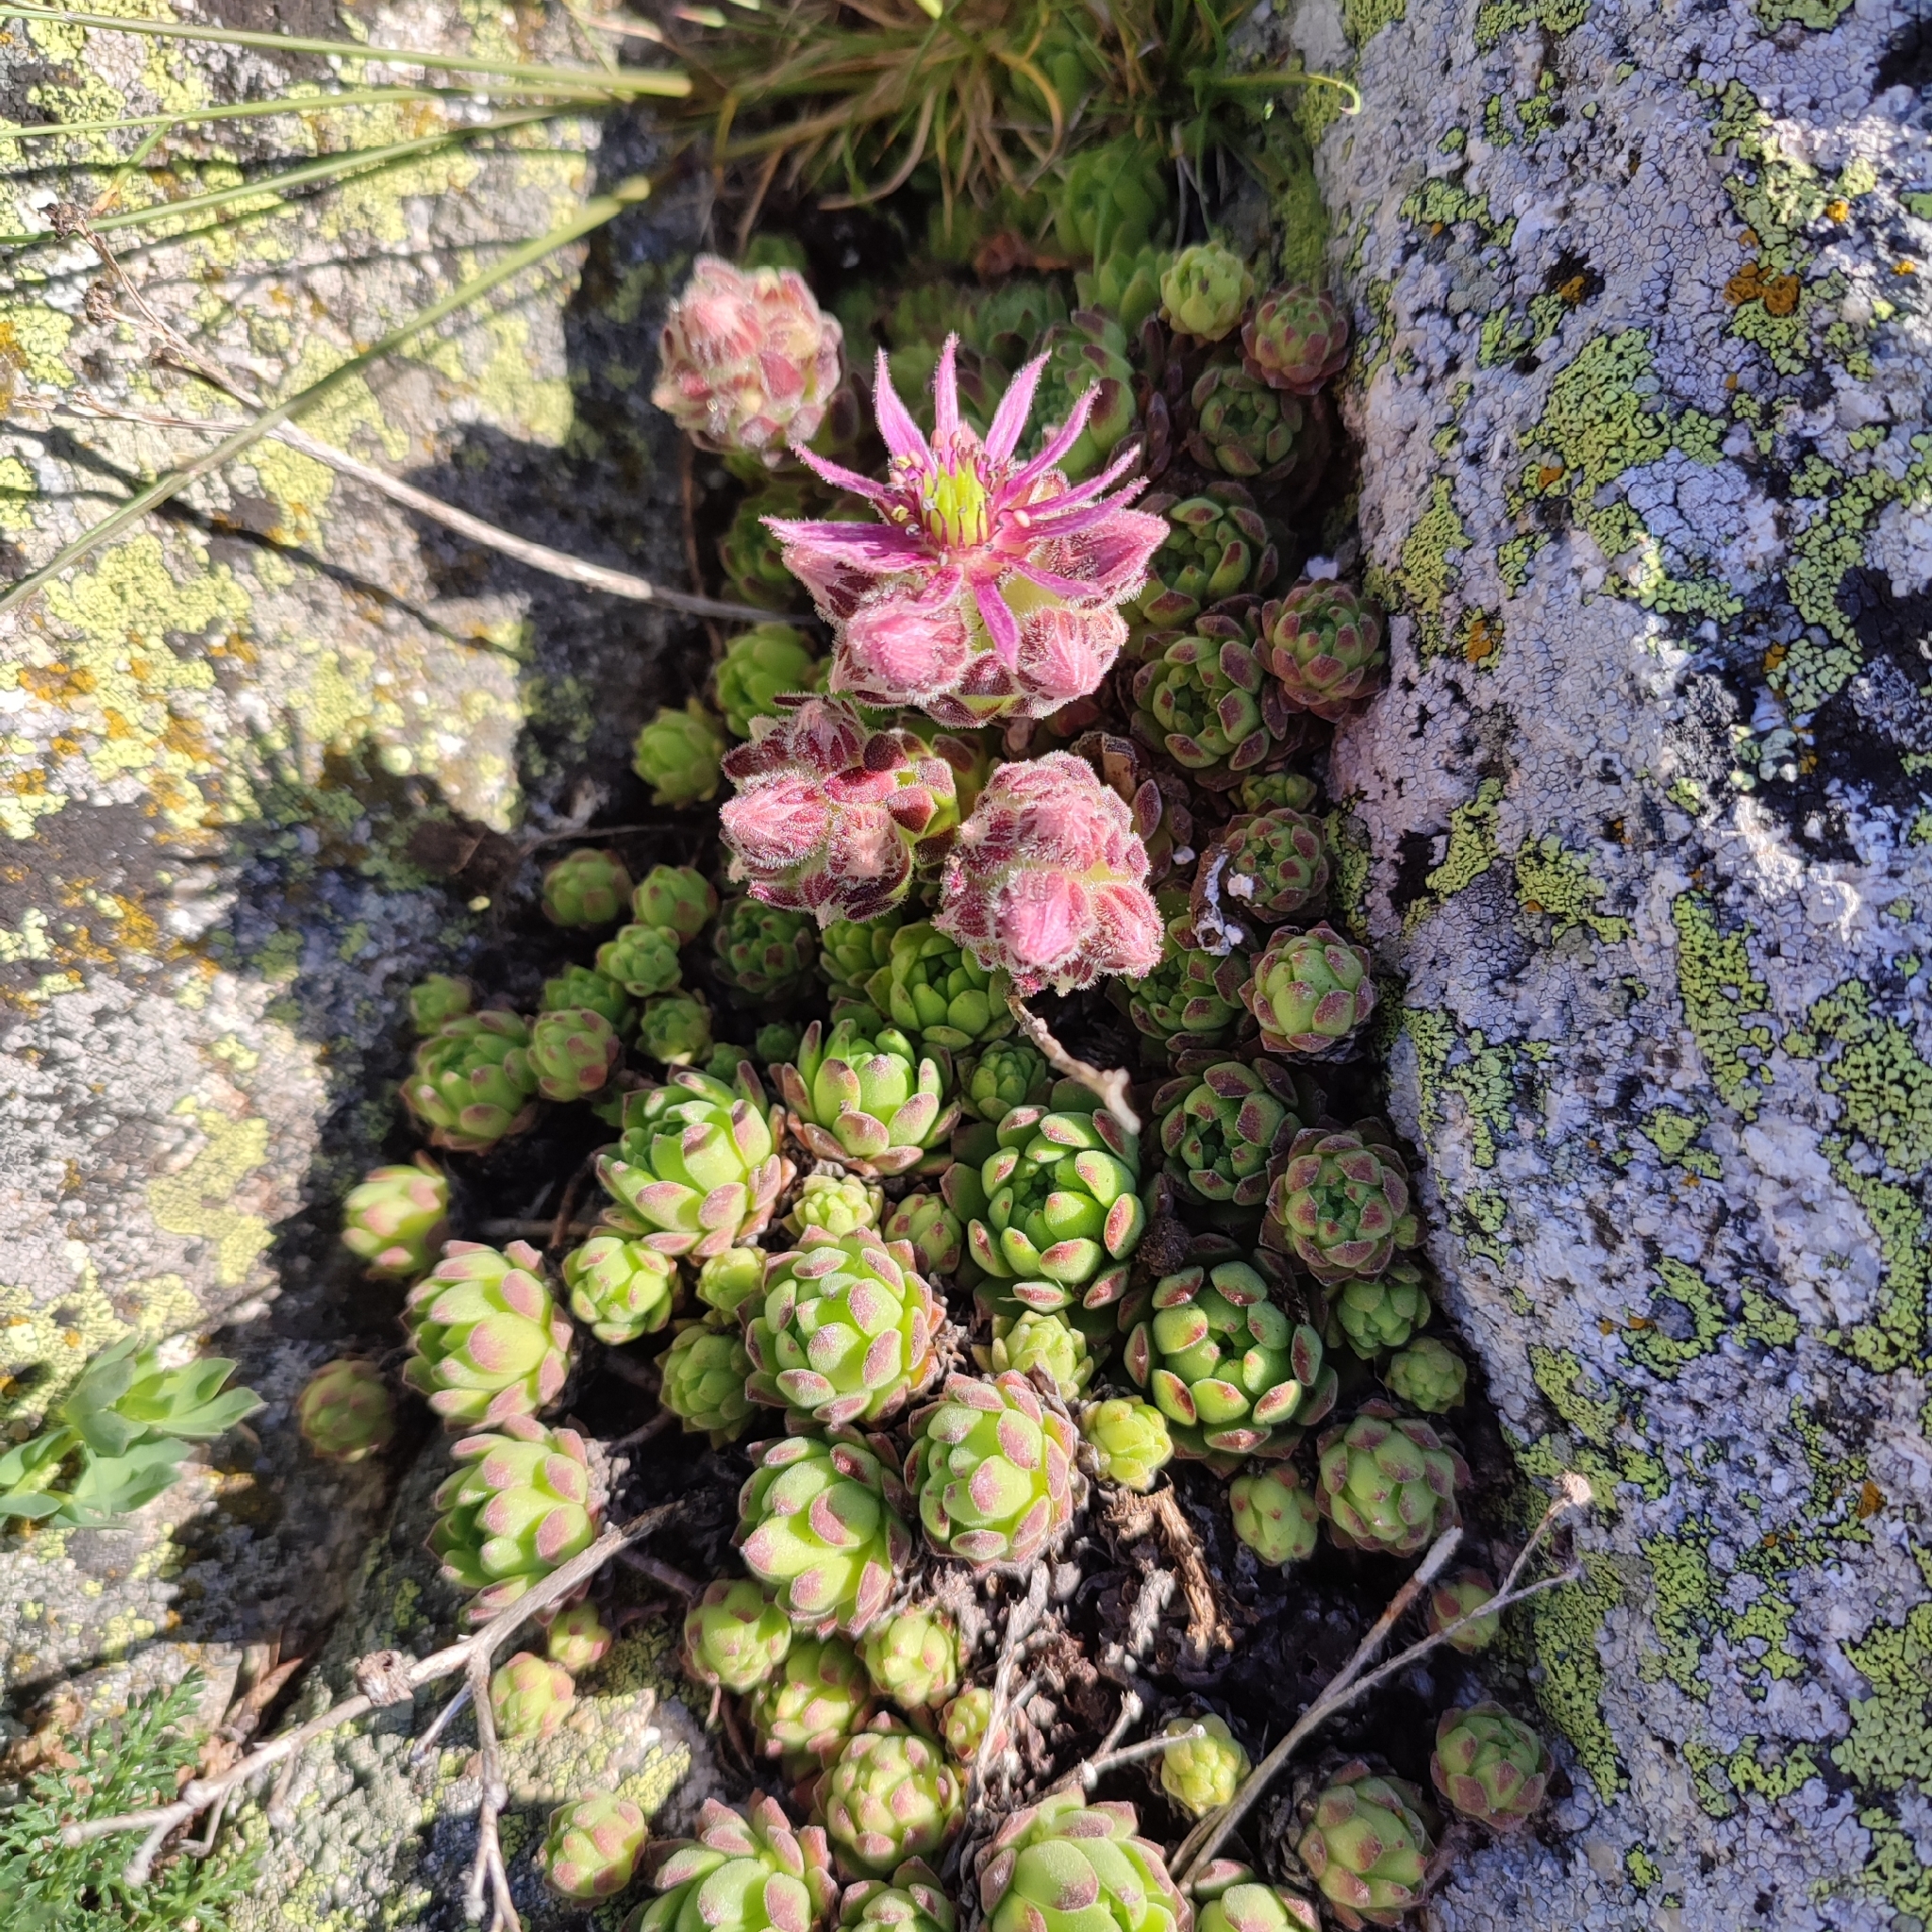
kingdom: Plantae
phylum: Tracheophyta
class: Magnoliopsida
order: Saxifragales
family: Crassulaceae
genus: Sempervivum
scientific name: Sempervivum montanum
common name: Mountain house-leek
